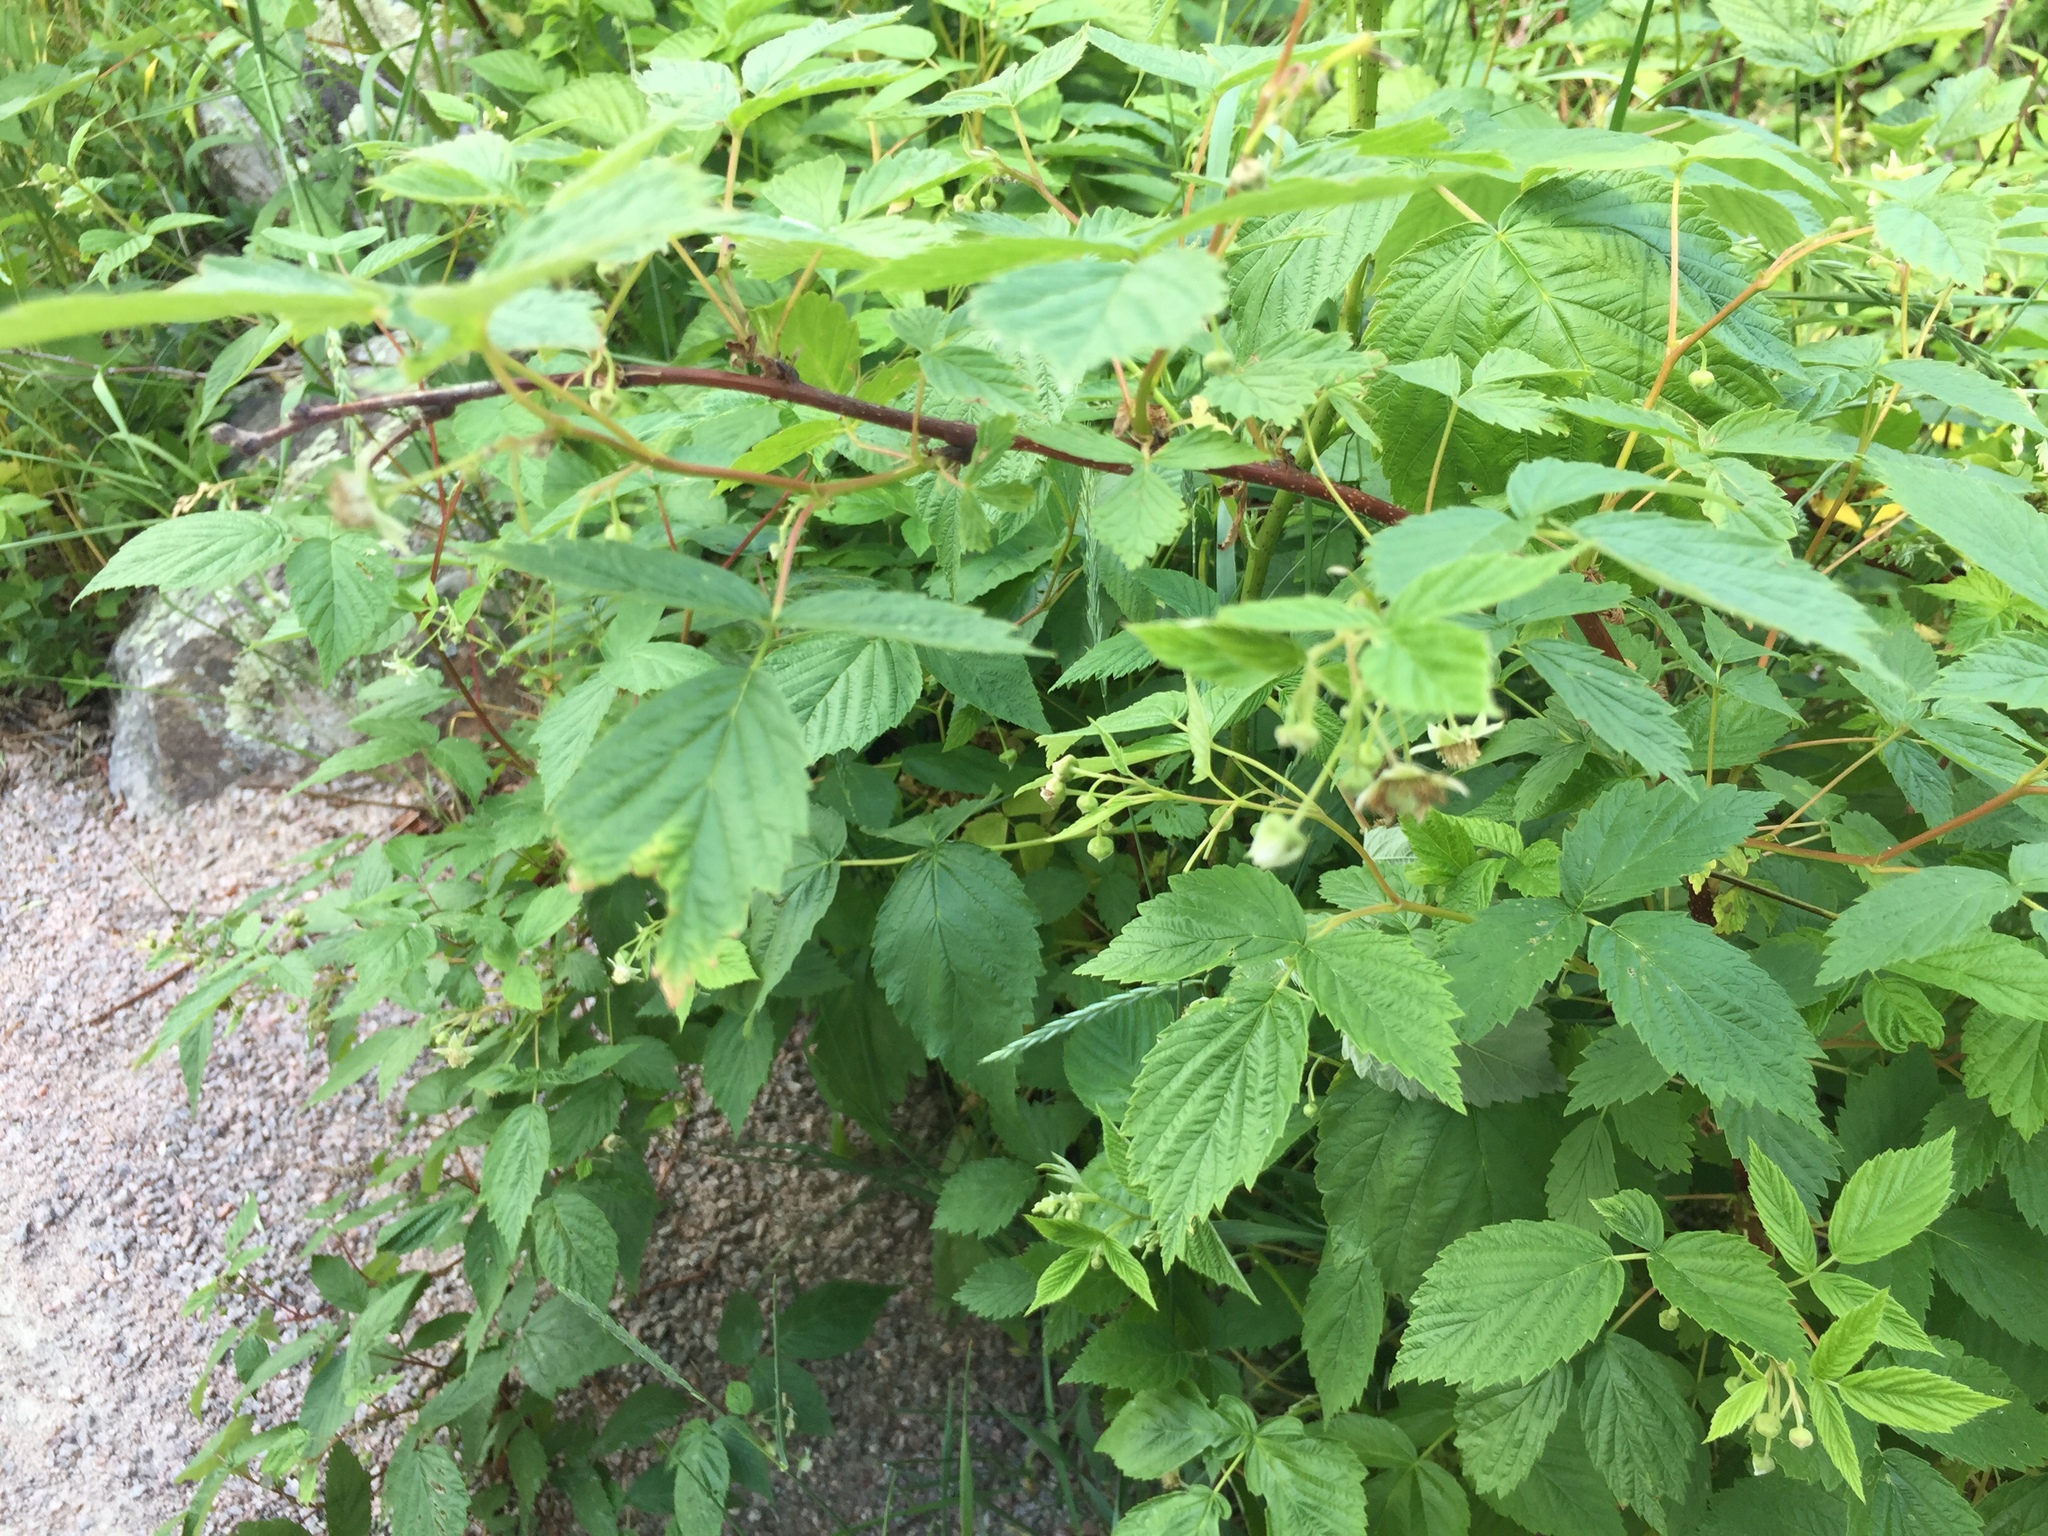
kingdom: Plantae
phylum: Tracheophyta
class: Magnoliopsida
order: Rosales
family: Rosaceae
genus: Rubus
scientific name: Rubus idaeus
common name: Raspberry
